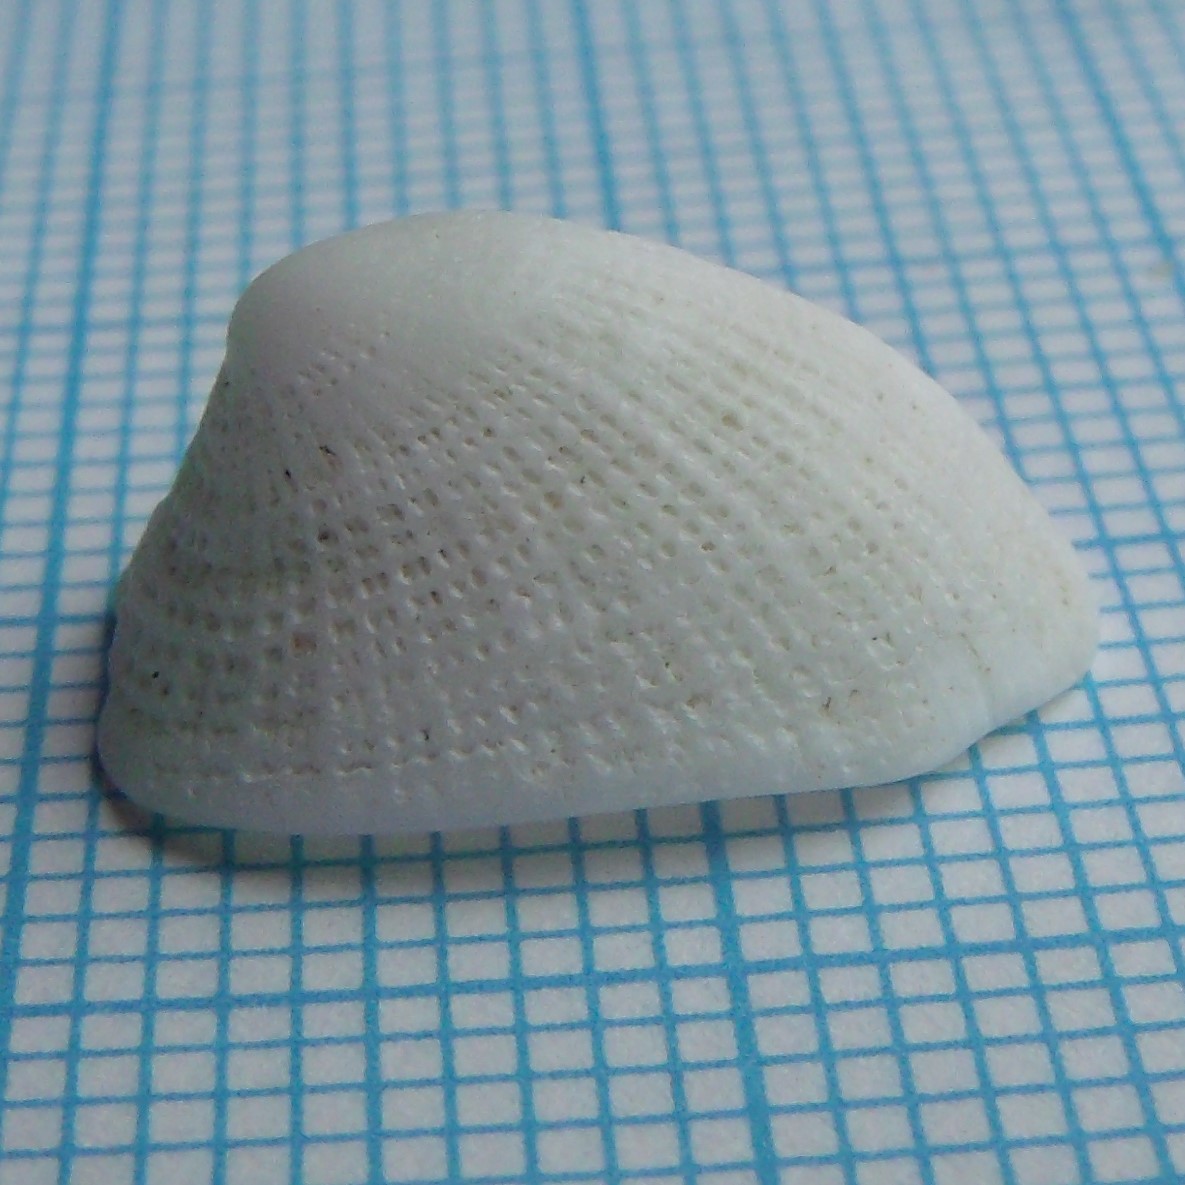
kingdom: Animalia
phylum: Mollusca
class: Gastropoda
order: Lepetellida
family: Fissurellidae
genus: Tugali
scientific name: Tugali suteri
